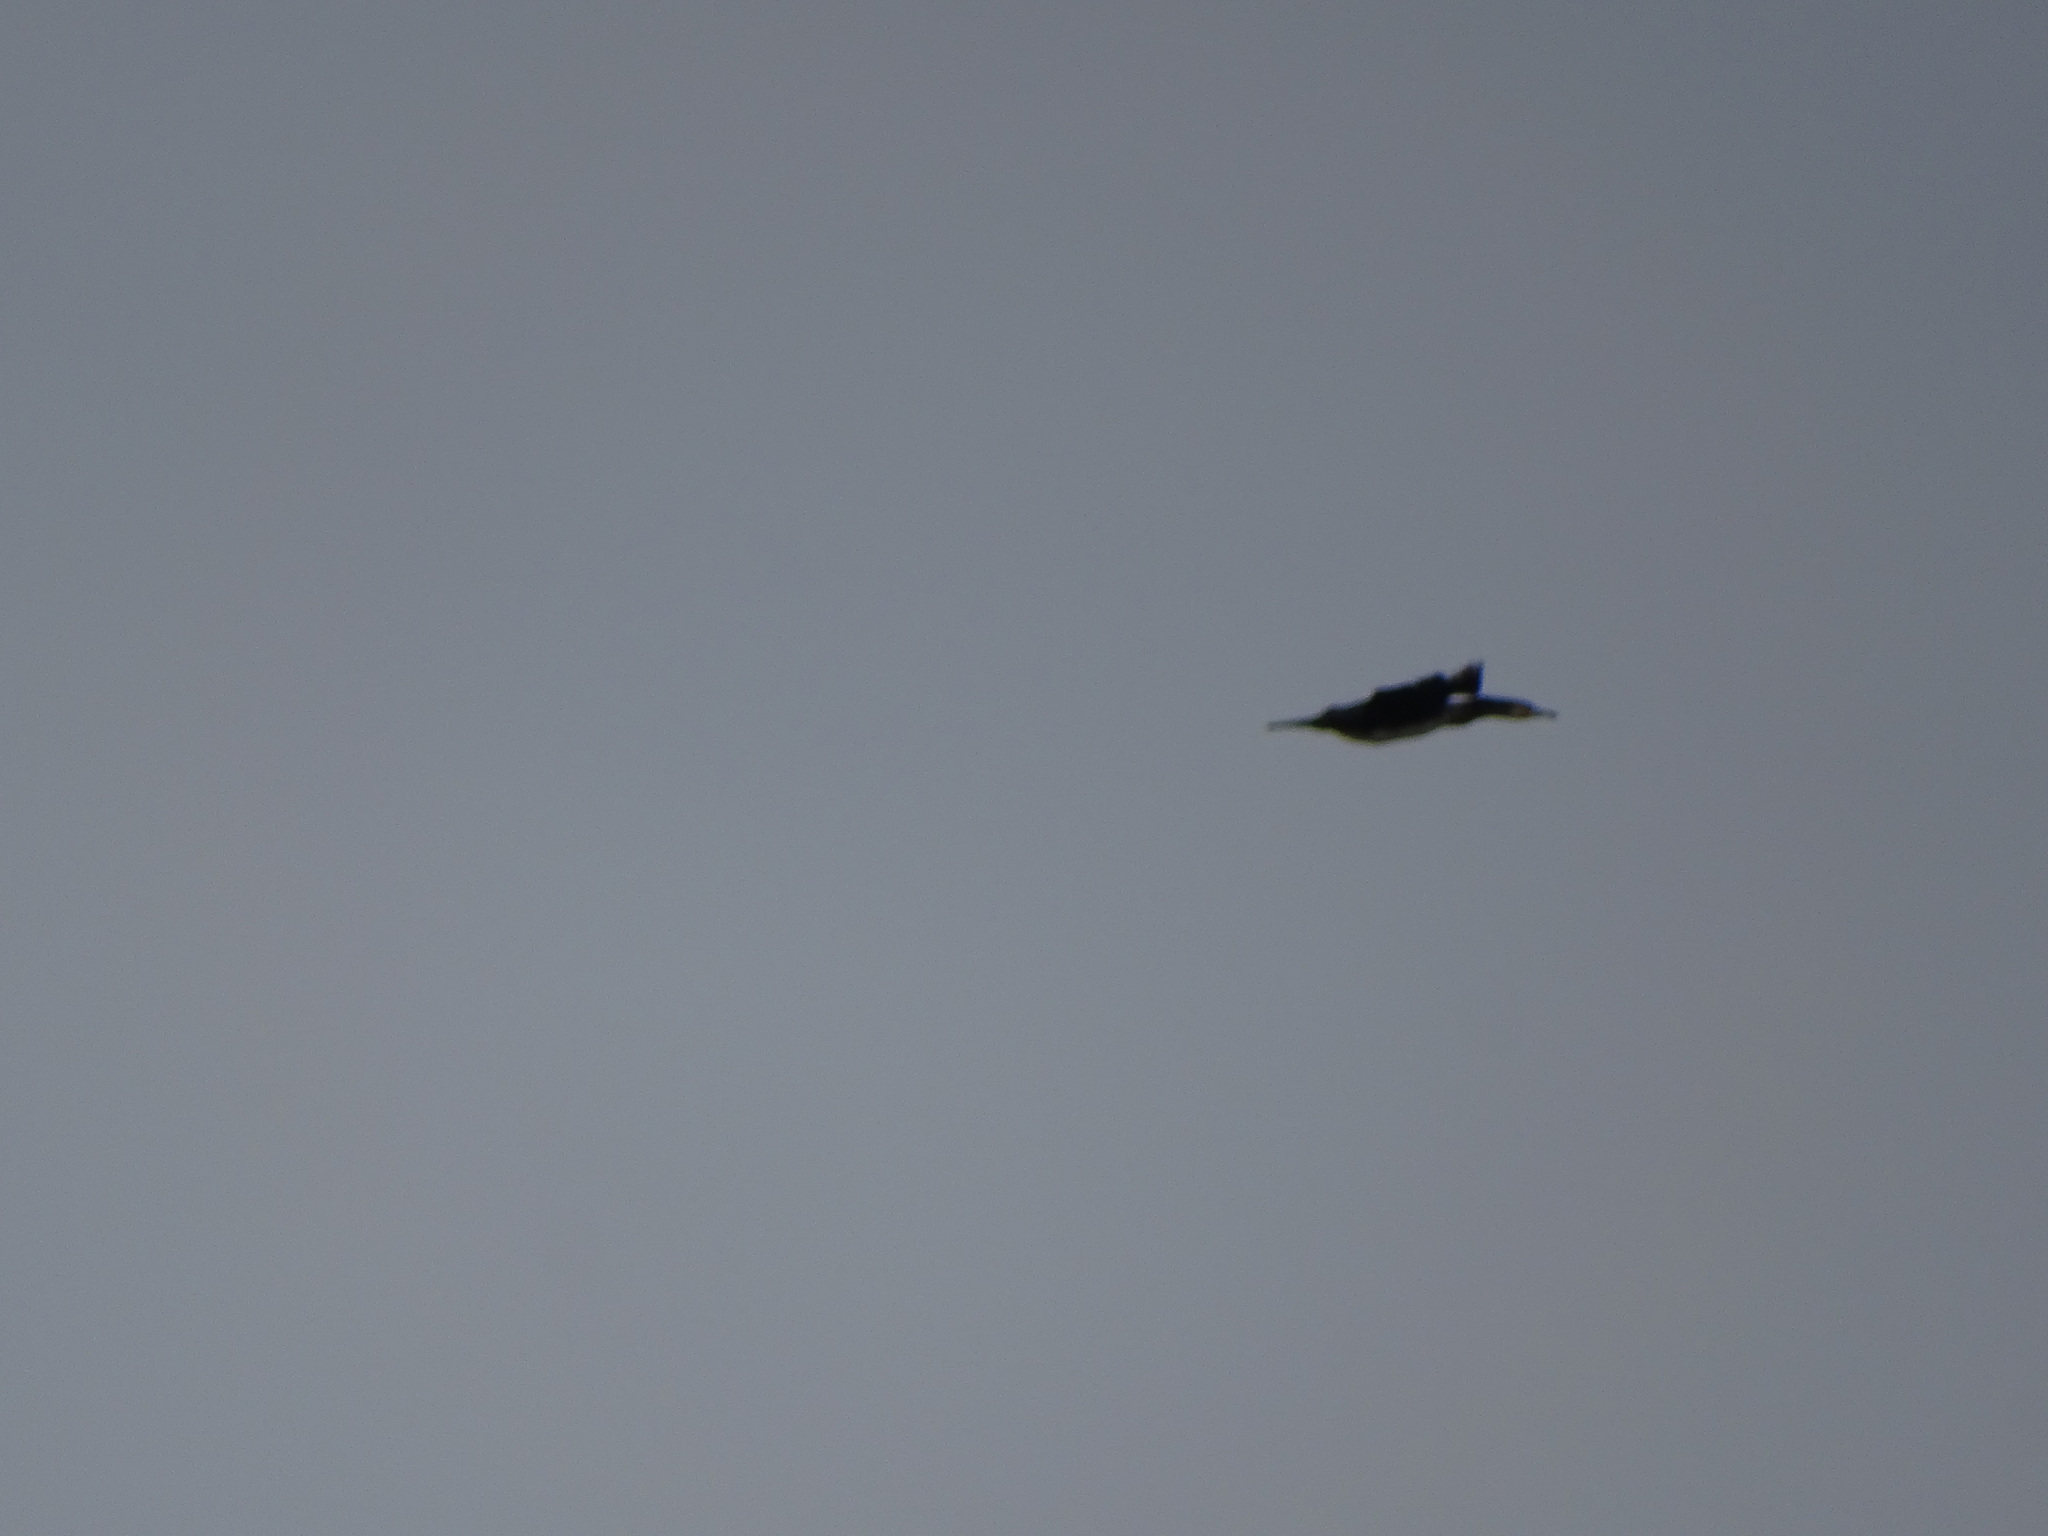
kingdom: Animalia
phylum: Chordata
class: Aves
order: Suliformes
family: Phalacrocoracidae
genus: Phalacrocorax
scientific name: Phalacrocorax carbo
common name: Great cormorant
